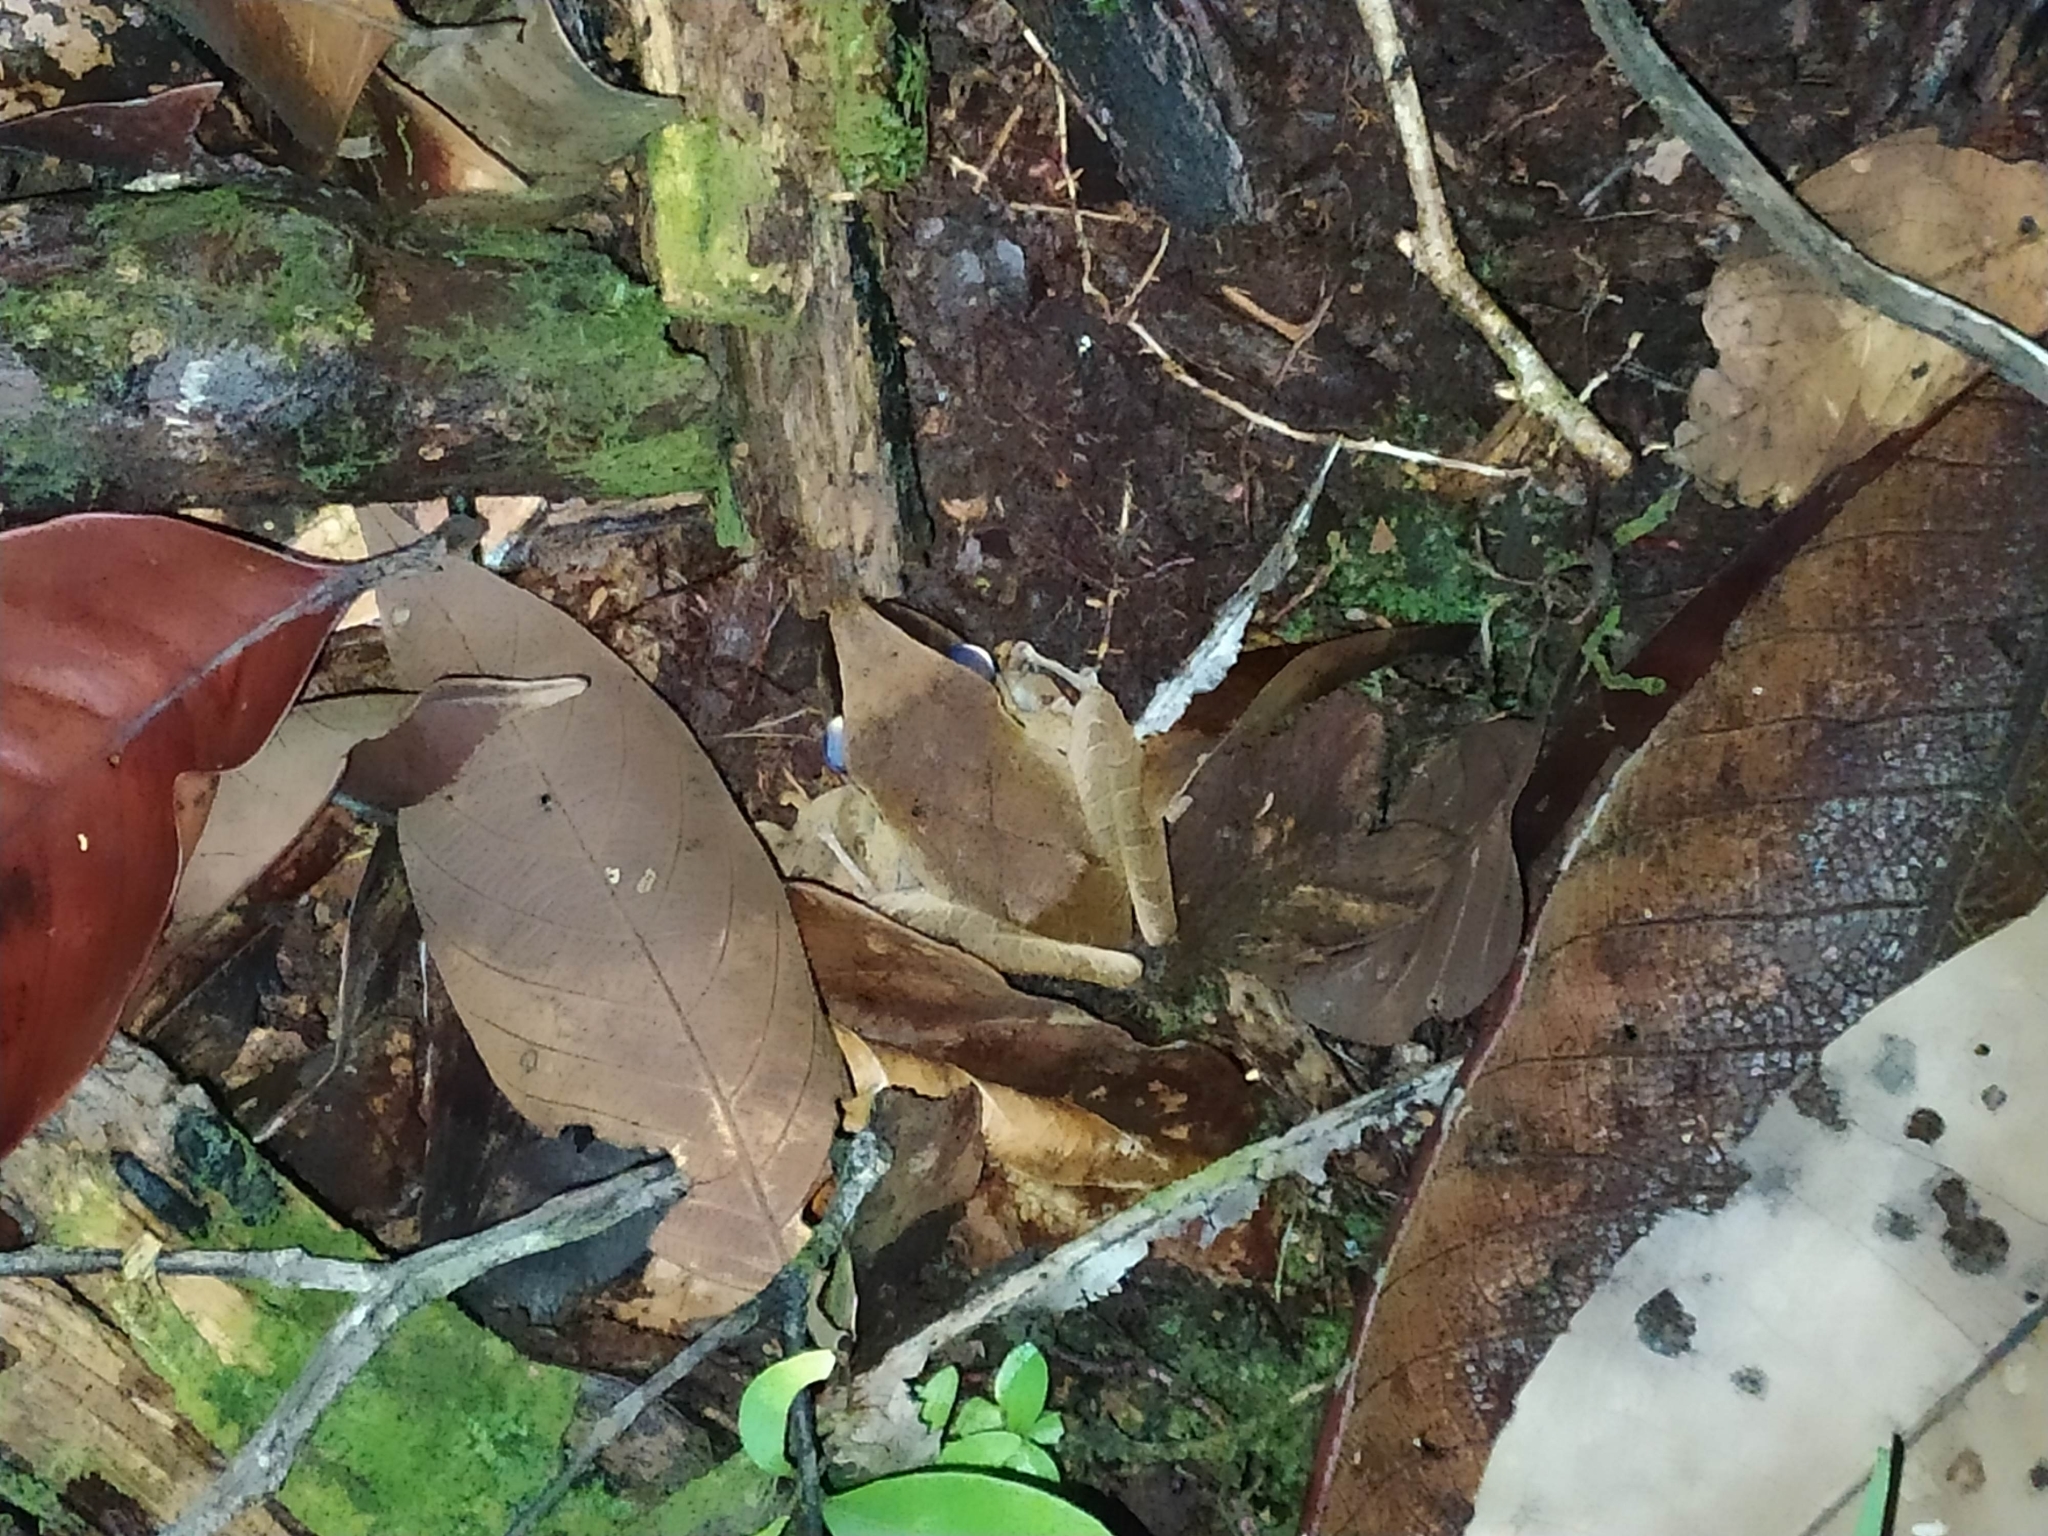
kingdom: Animalia
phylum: Chordata
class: Amphibia
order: Anura
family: Craugastoridae
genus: Pristimantis
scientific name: Pristimantis chiastonotus
